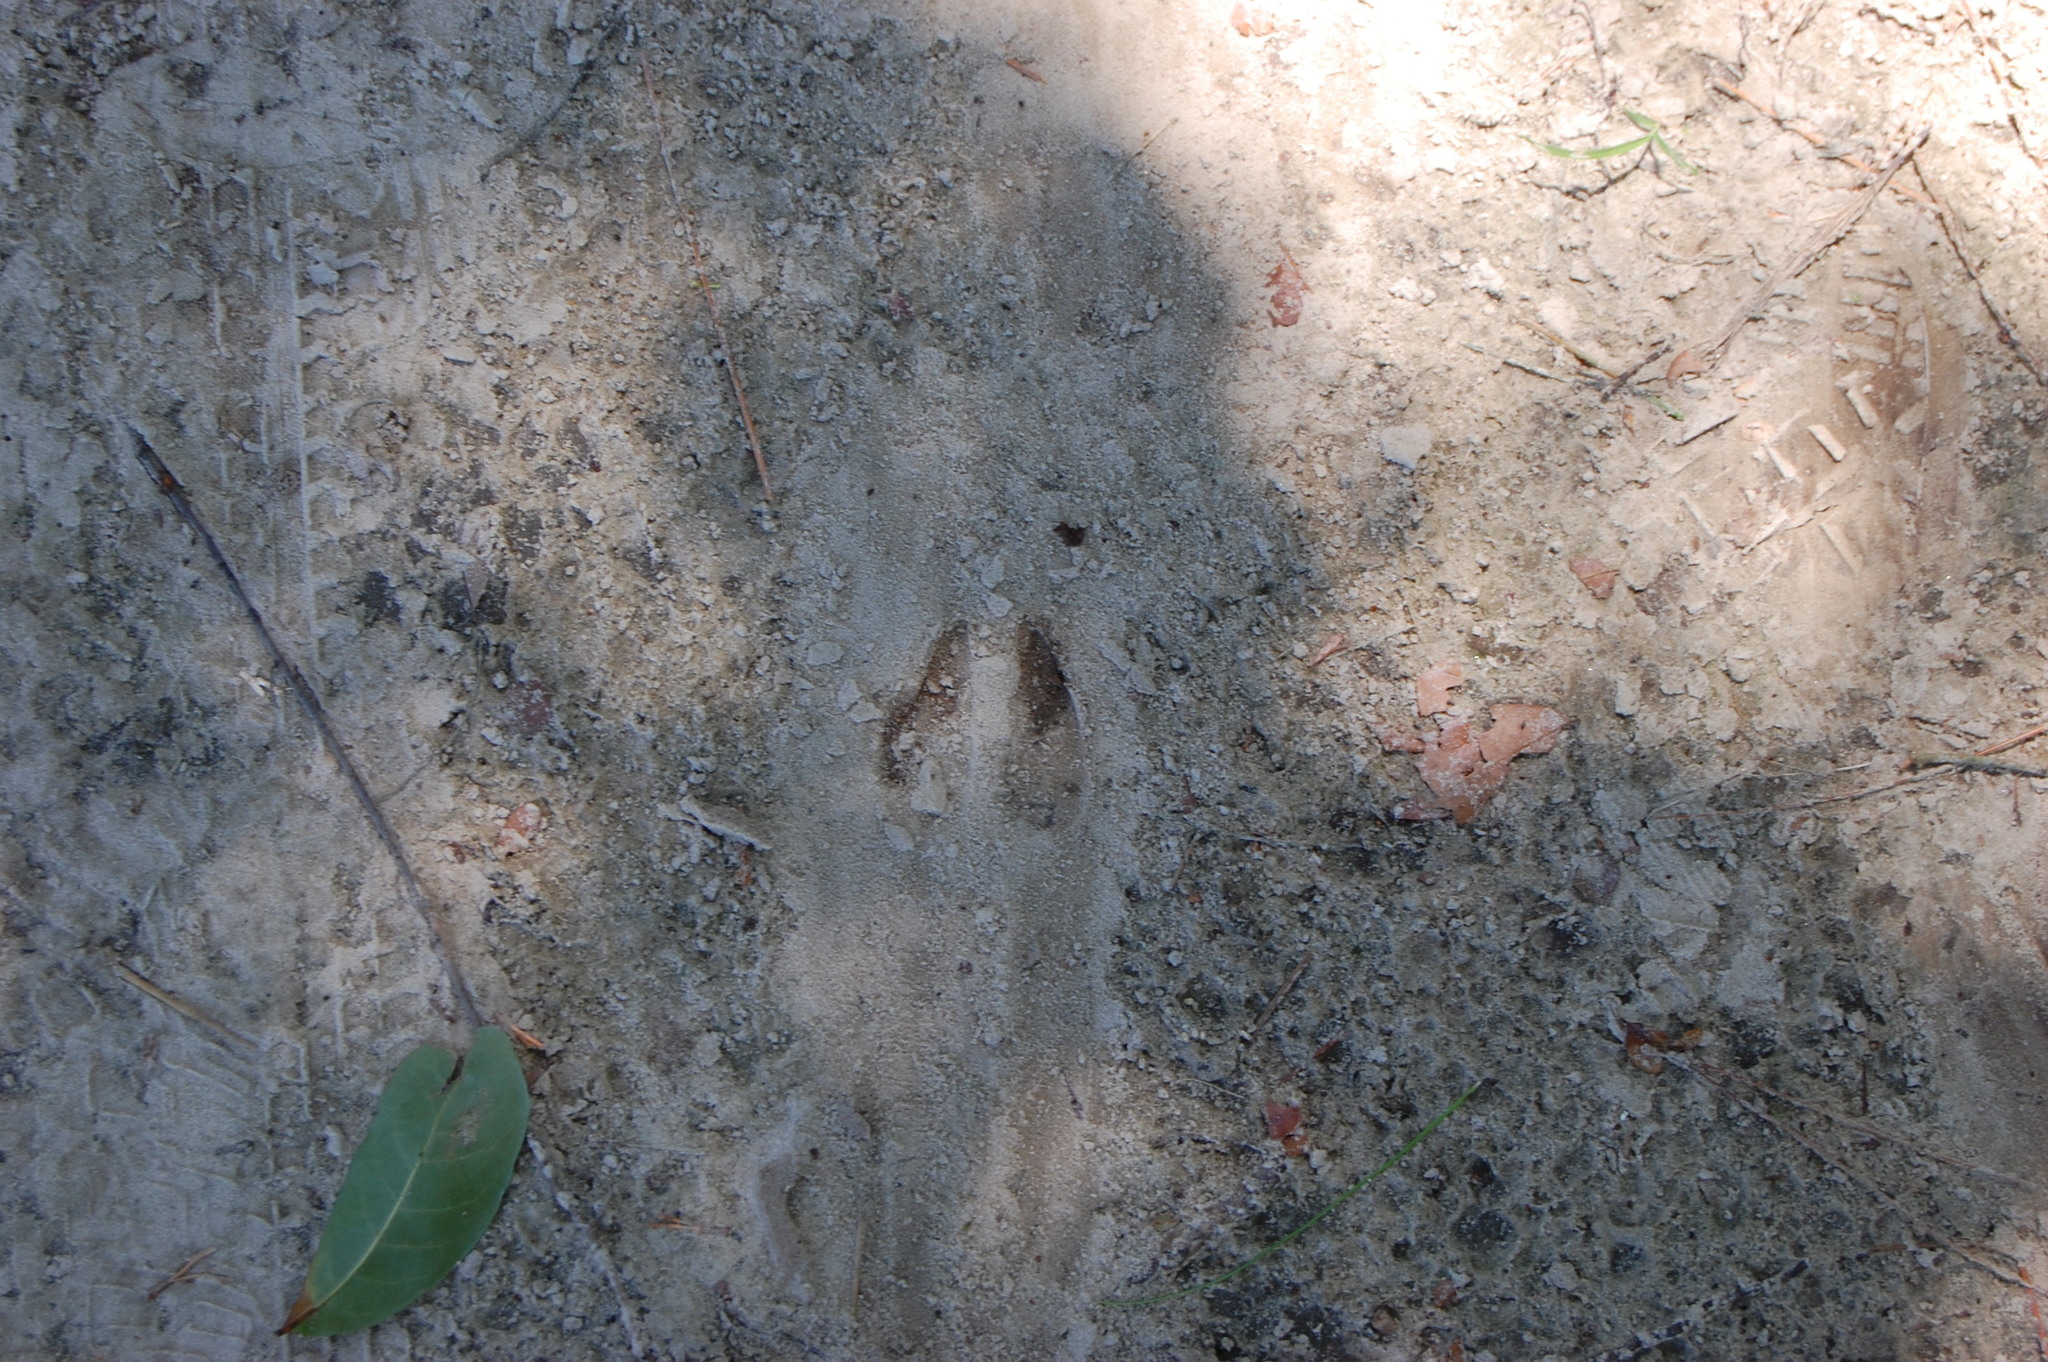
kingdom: Animalia
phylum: Chordata
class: Mammalia
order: Artiodactyla
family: Cervidae
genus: Odocoileus
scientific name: Odocoileus virginianus
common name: White-tailed deer
